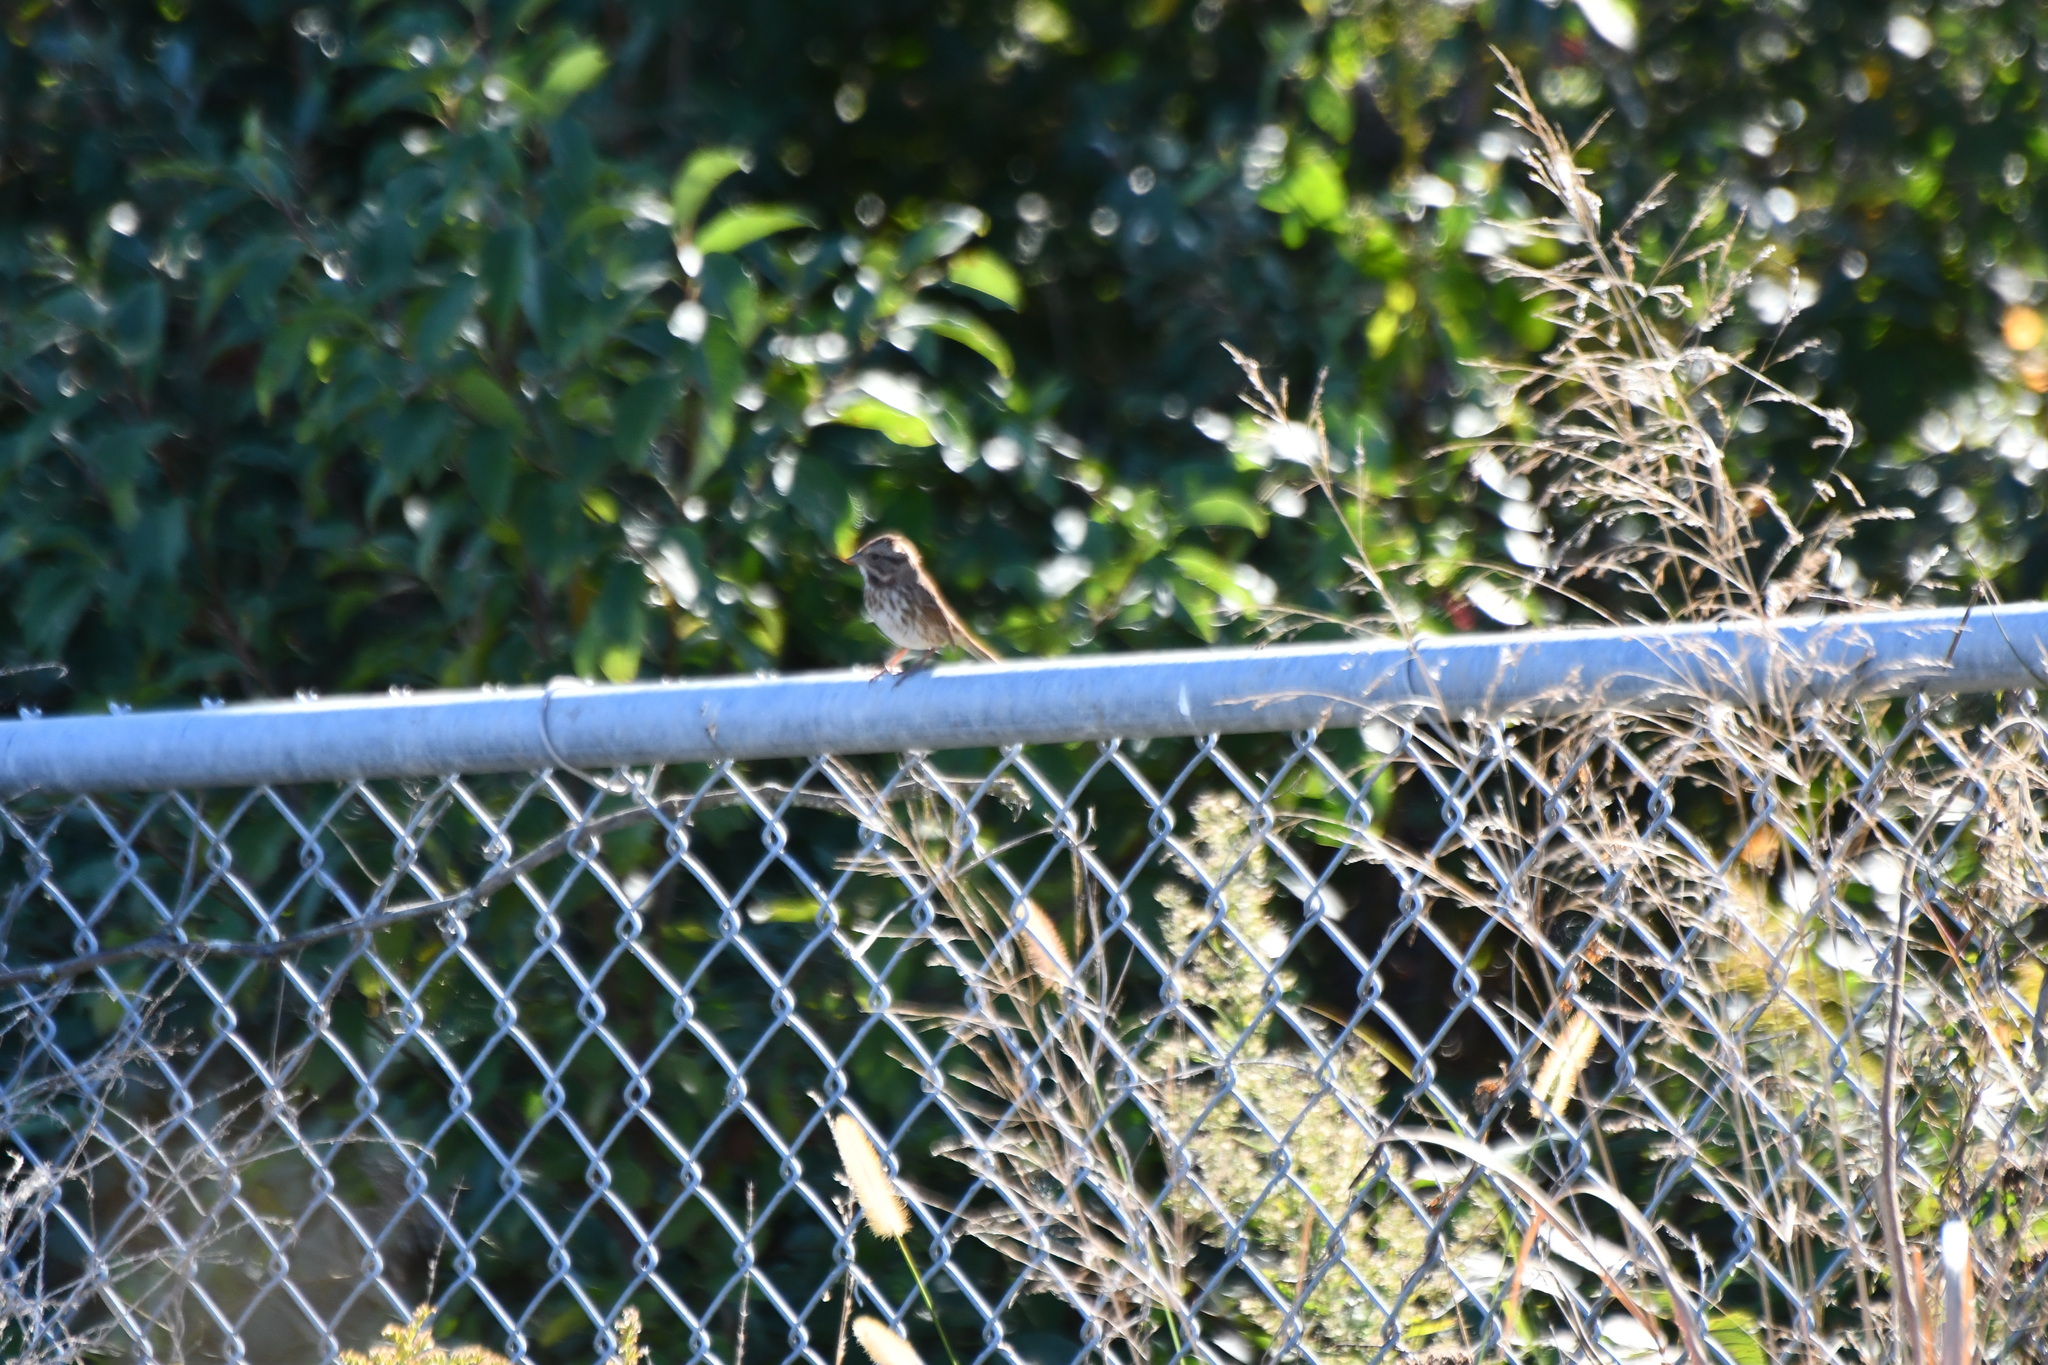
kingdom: Animalia
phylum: Chordata
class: Aves
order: Passeriformes
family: Passerellidae
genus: Melospiza
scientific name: Melospiza melodia
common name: Song sparrow
